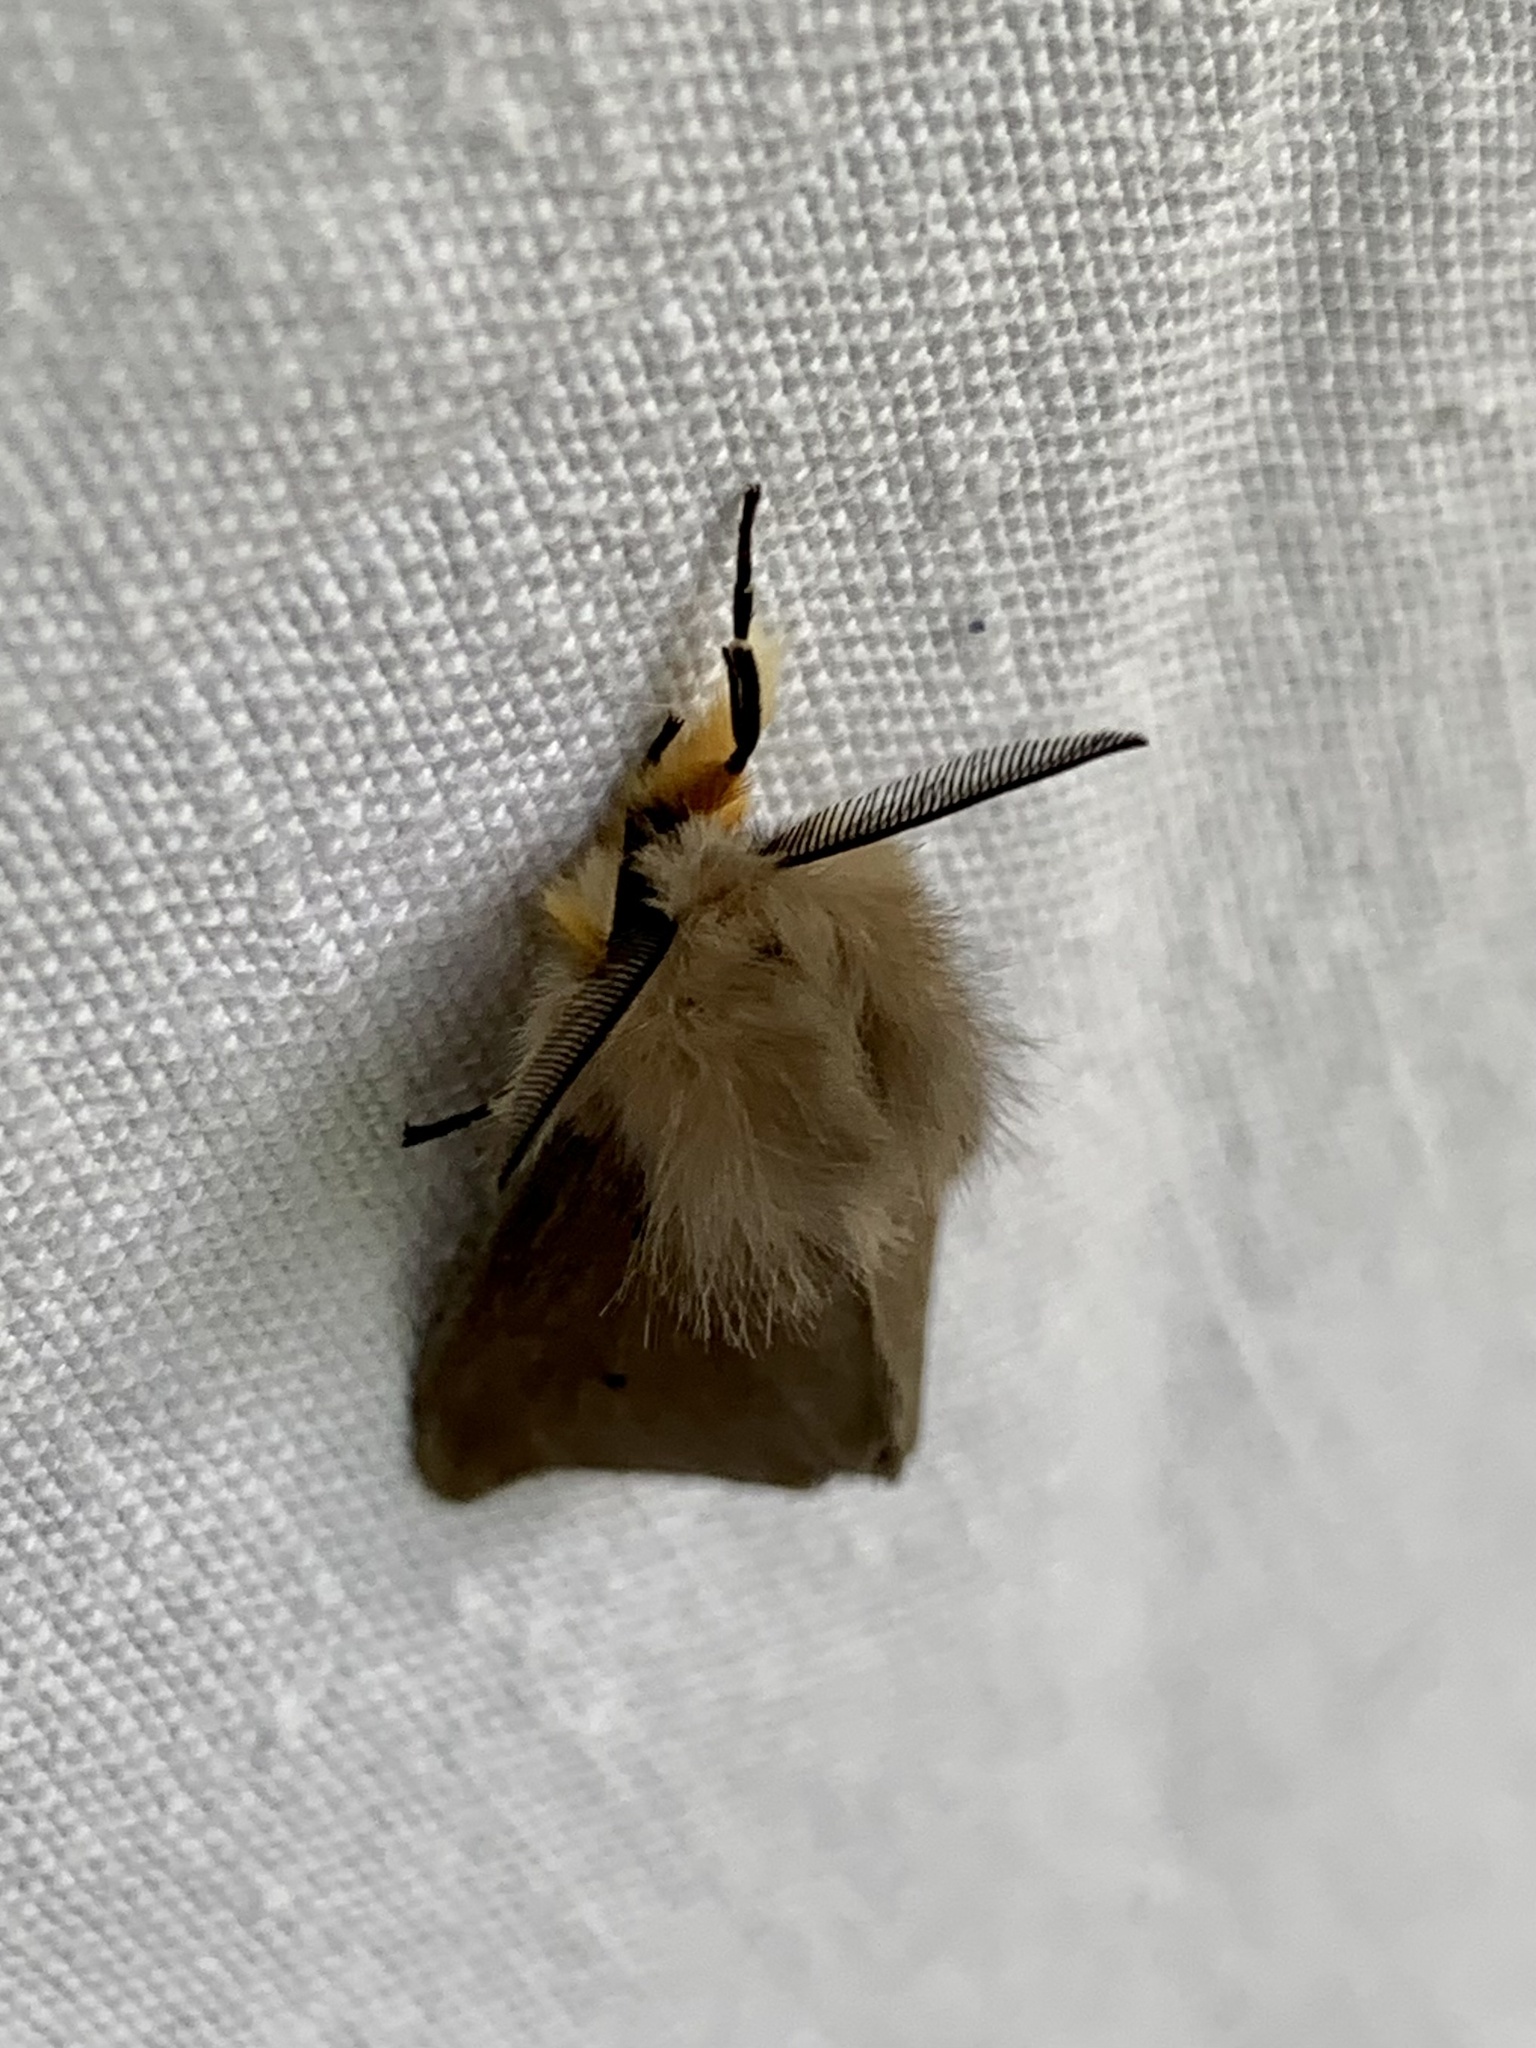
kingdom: Animalia
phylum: Arthropoda
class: Insecta
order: Lepidoptera
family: Erebidae
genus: Diaphora
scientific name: Diaphora mendica
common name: Muslin moth
